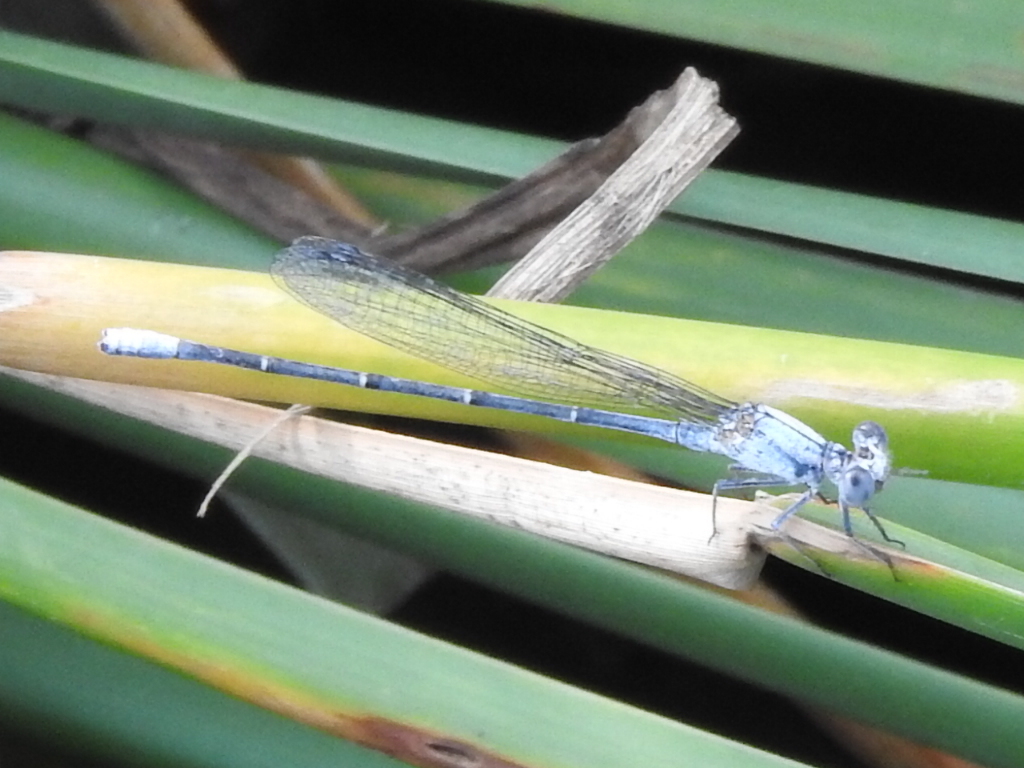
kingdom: Animalia
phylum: Arthropoda
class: Insecta
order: Odonata
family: Coenagrionidae
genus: Argia
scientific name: Argia moesta
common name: Powdered dancer
